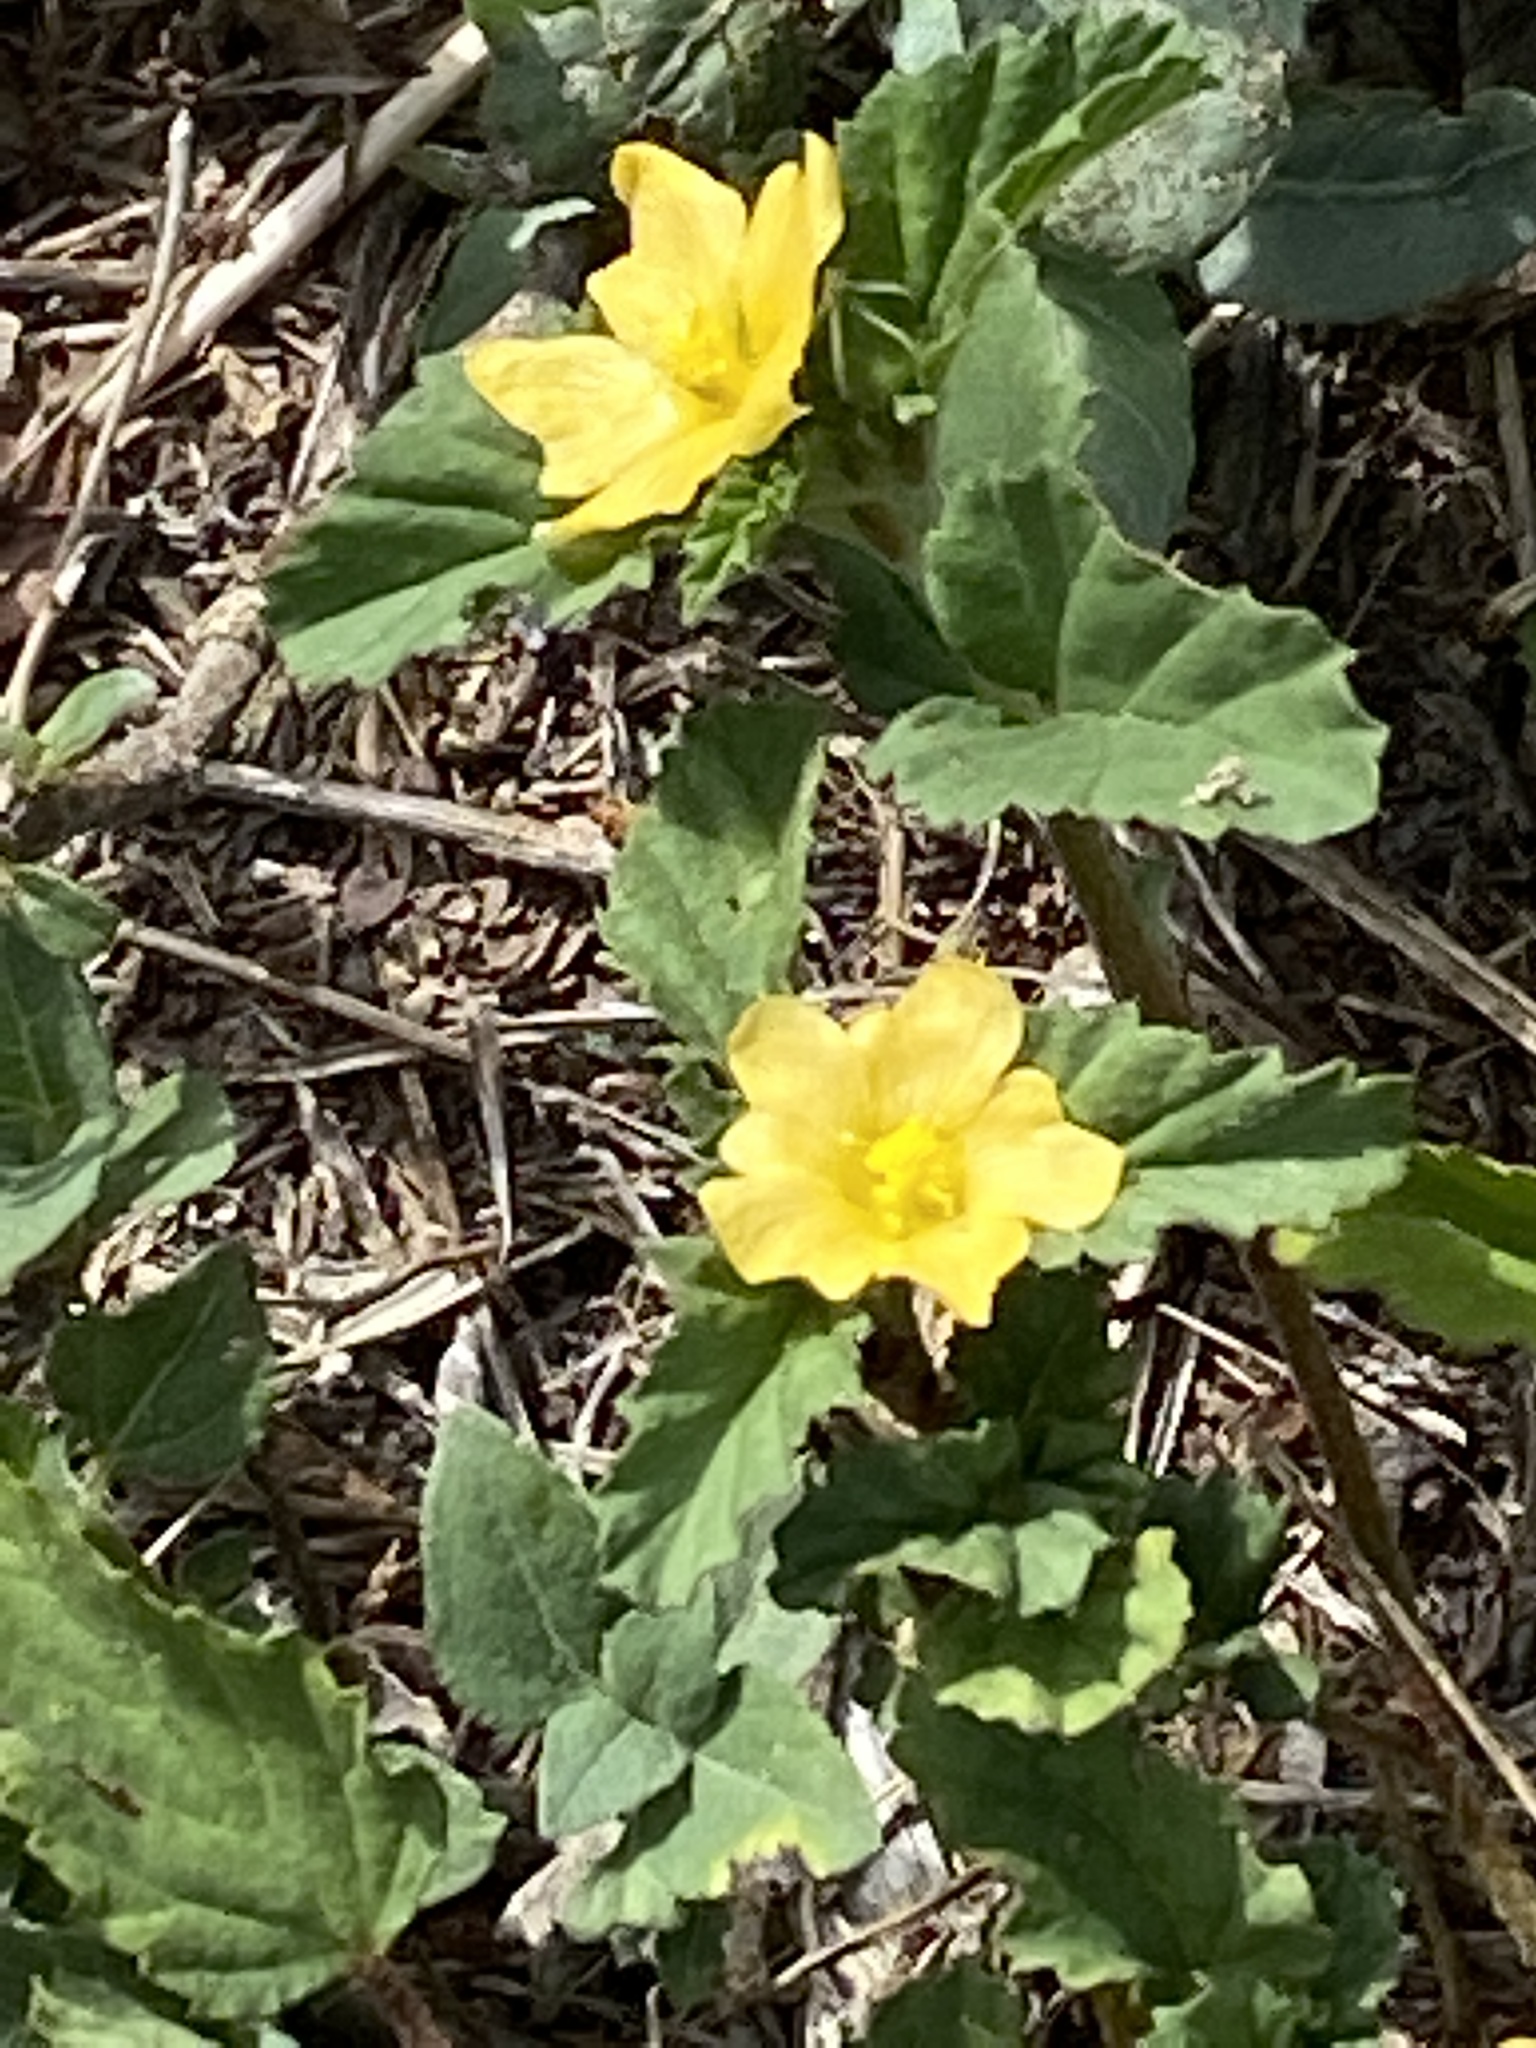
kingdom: Plantae
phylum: Tracheophyta
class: Magnoliopsida
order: Malvales
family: Malvaceae
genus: Malvastrum
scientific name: Malvastrum coromandelianum
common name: Threelobe false mallow
